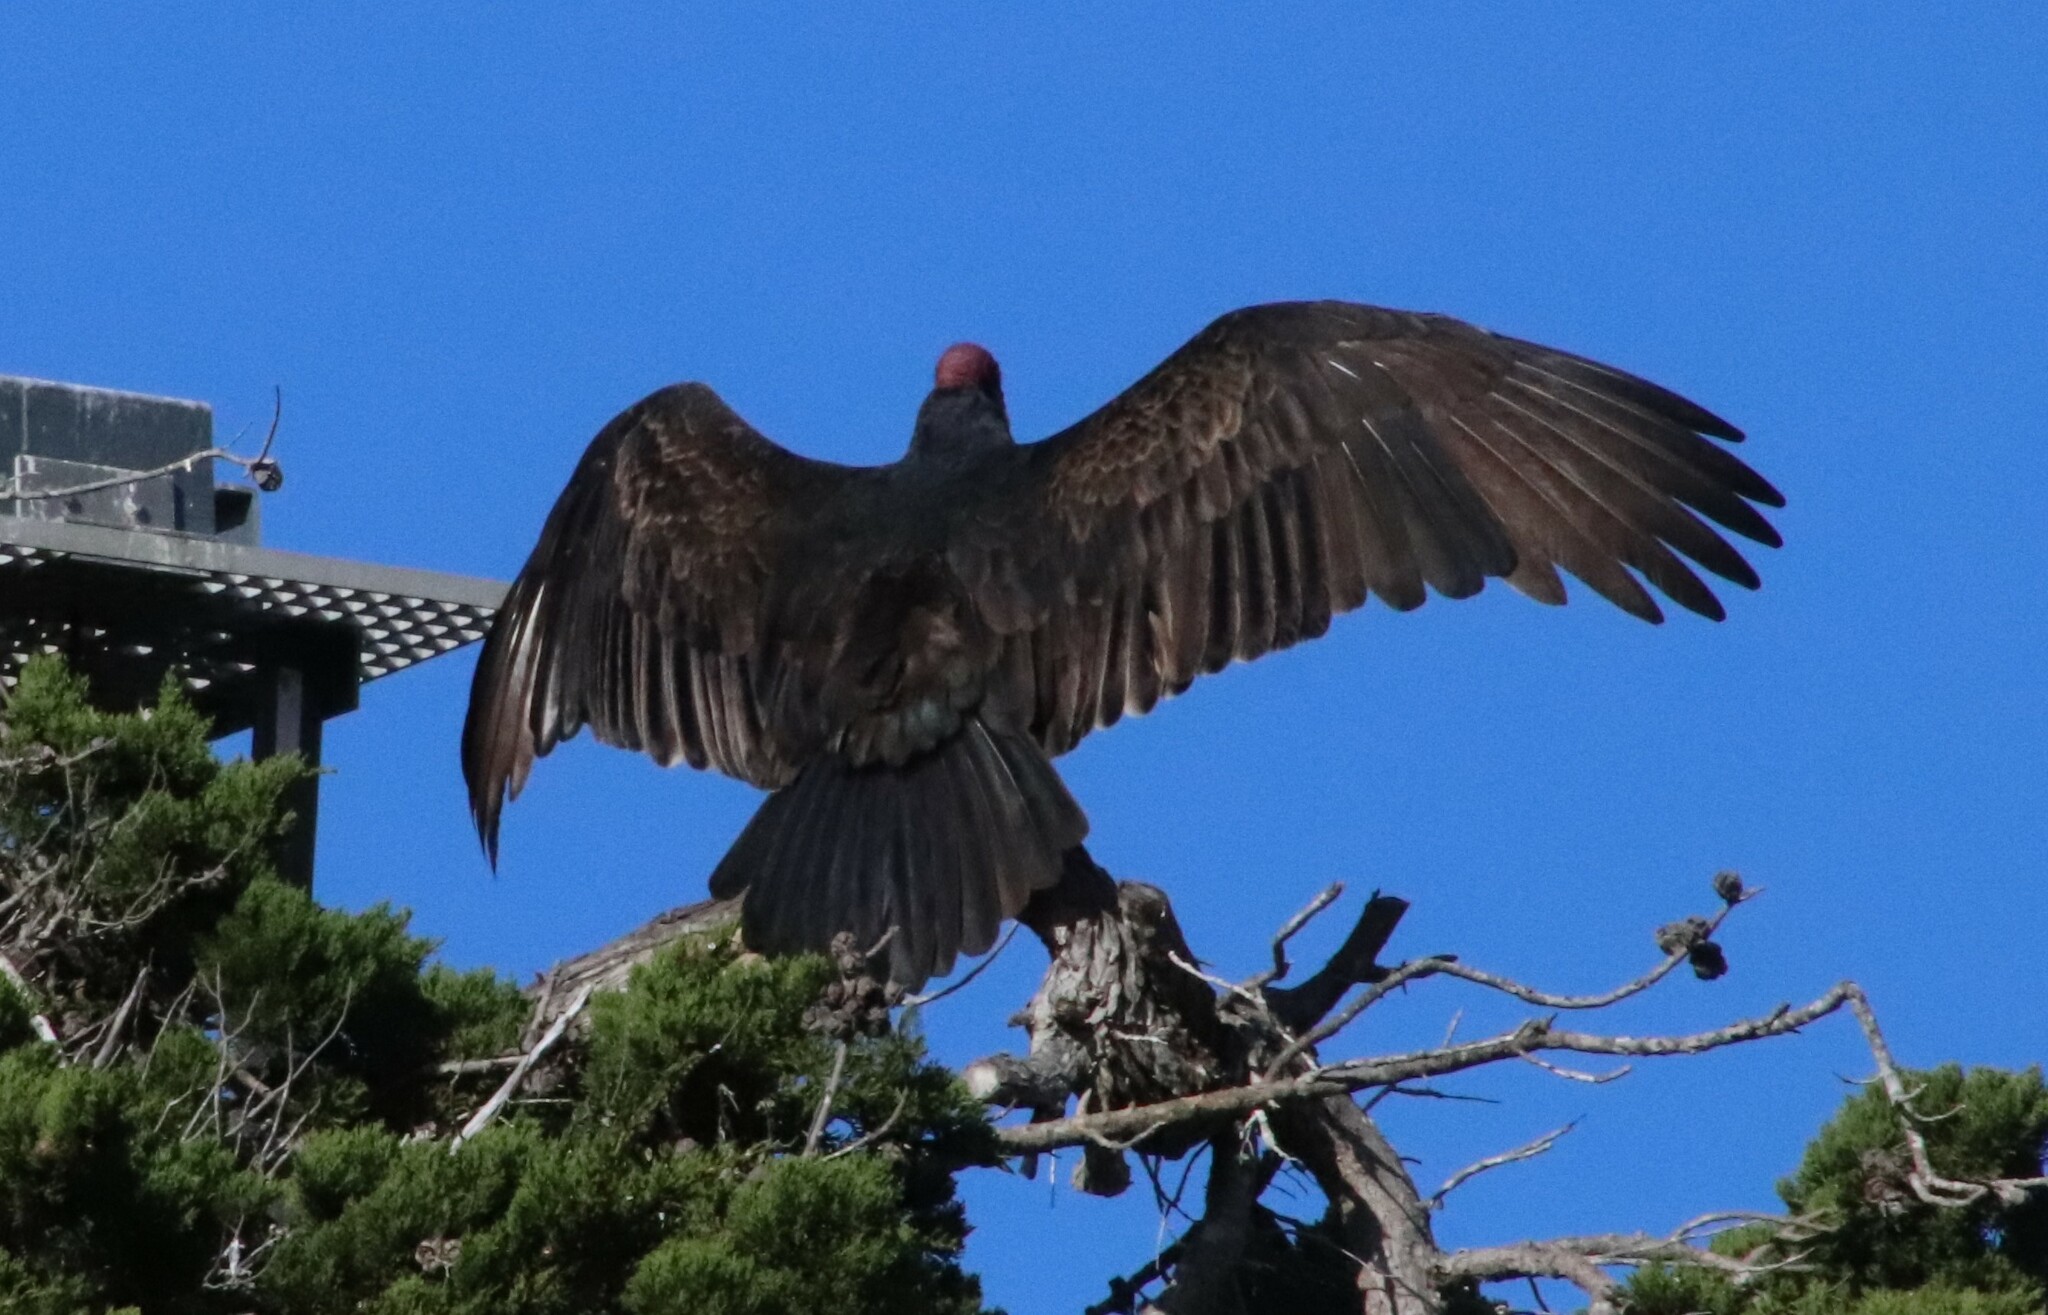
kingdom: Animalia
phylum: Chordata
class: Aves
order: Accipitriformes
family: Cathartidae
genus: Cathartes
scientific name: Cathartes aura
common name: Turkey vulture
